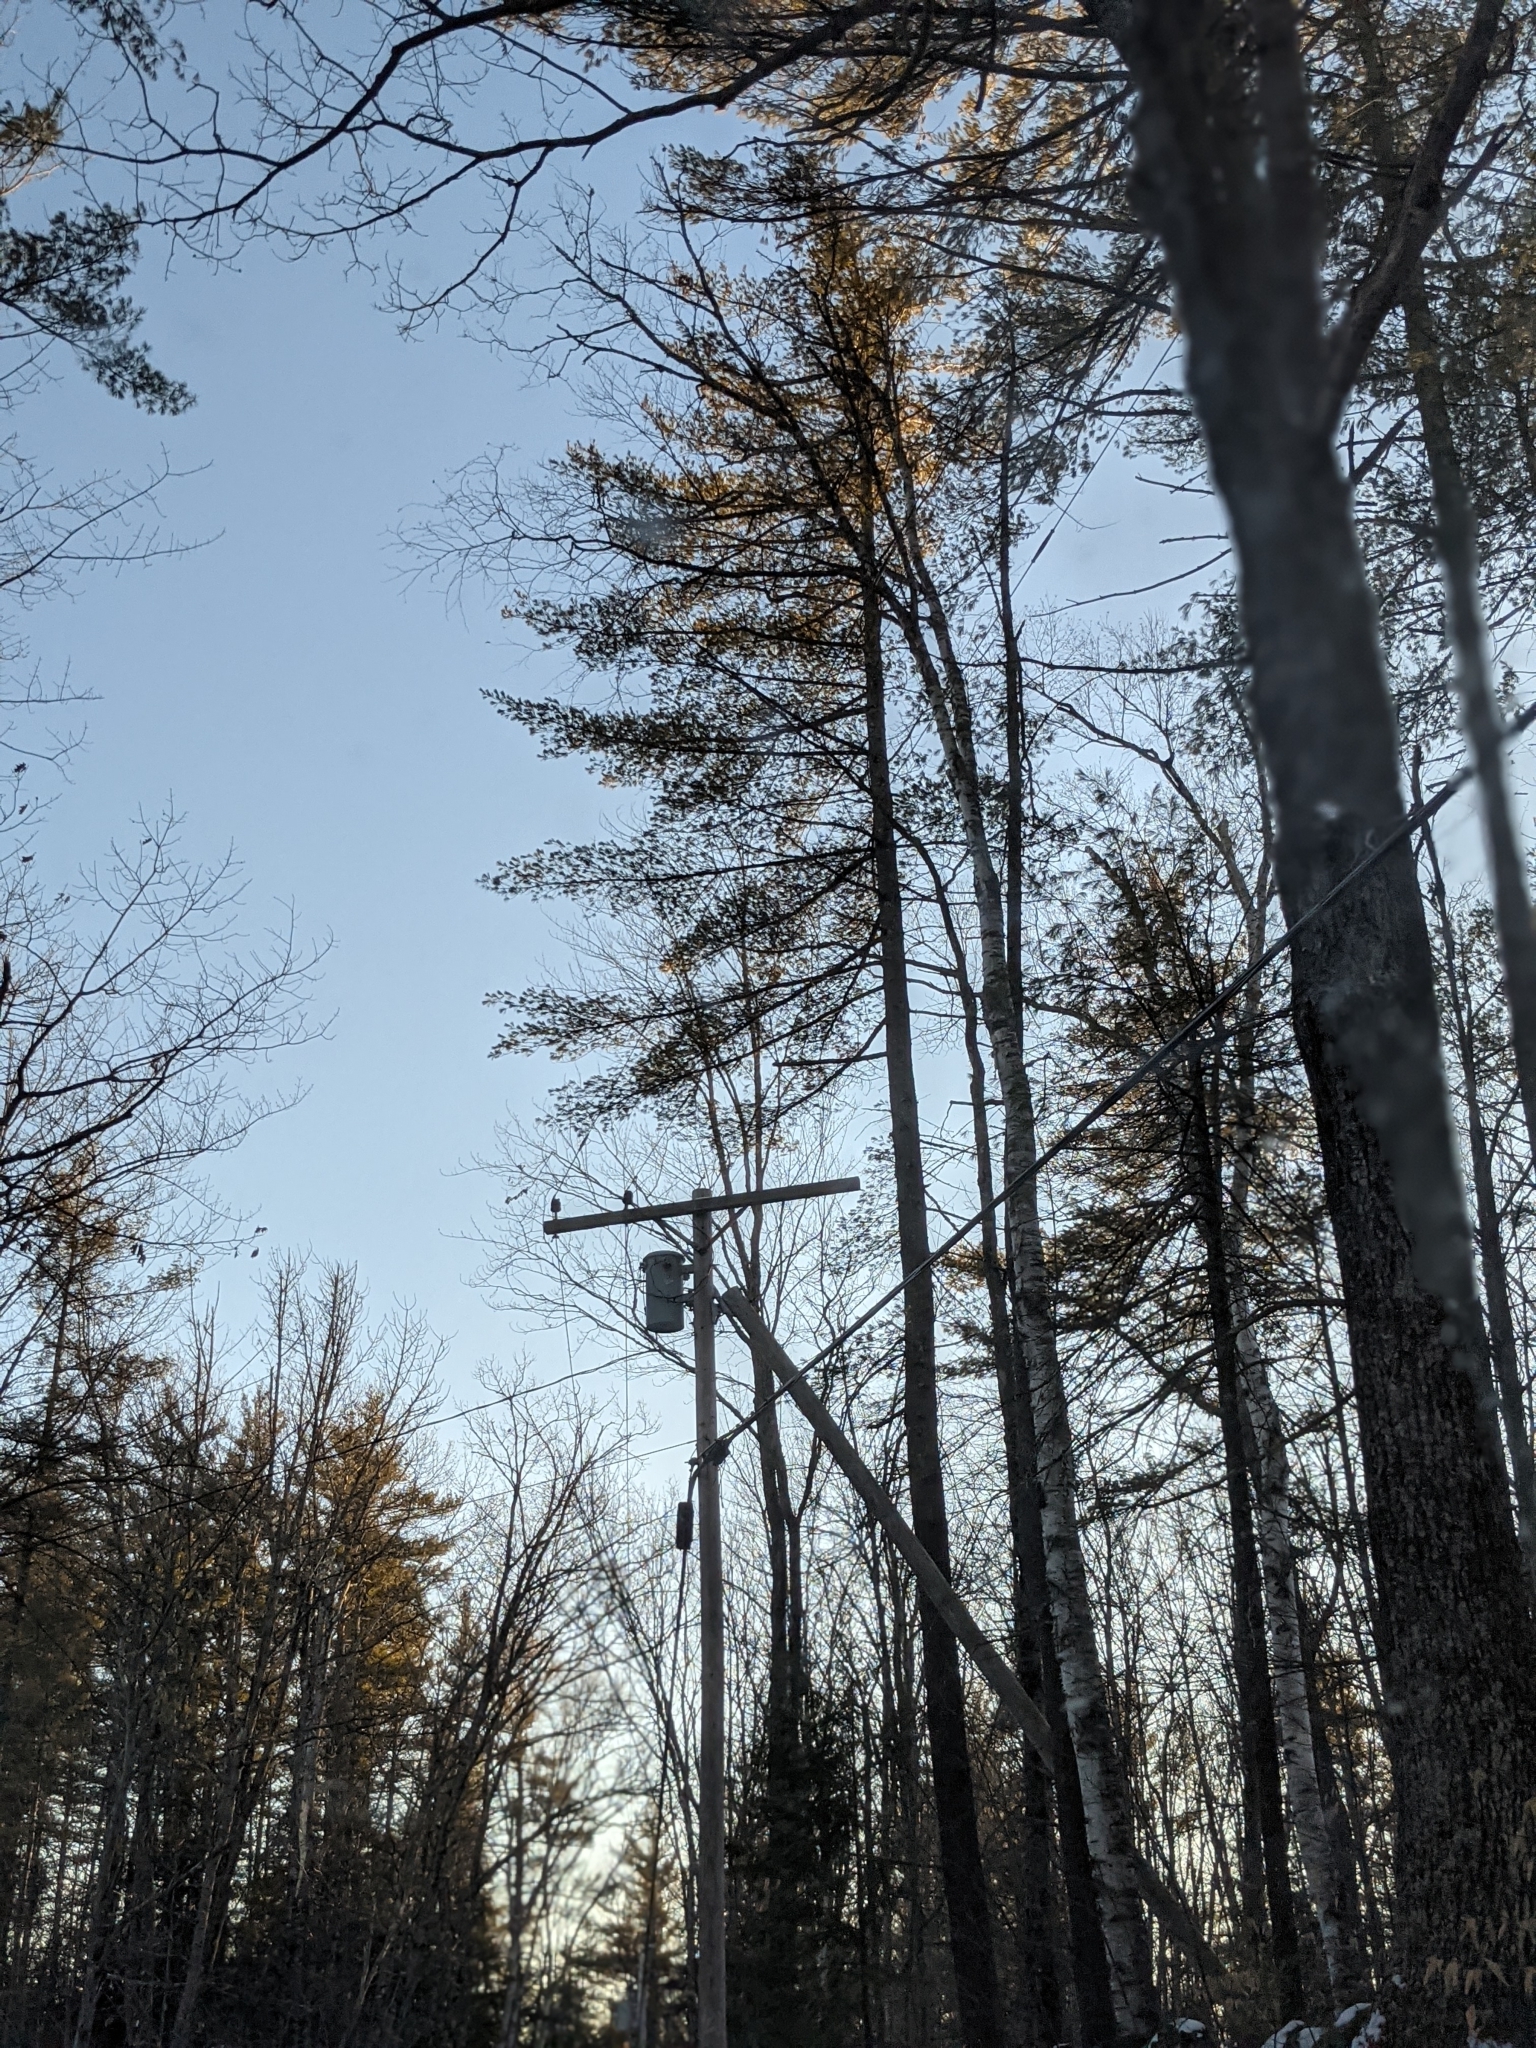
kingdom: Plantae
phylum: Tracheophyta
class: Pinopsida
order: Pinales
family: Pinaceae
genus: Pinus
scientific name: Pinus strobus
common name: Weymouth pine
